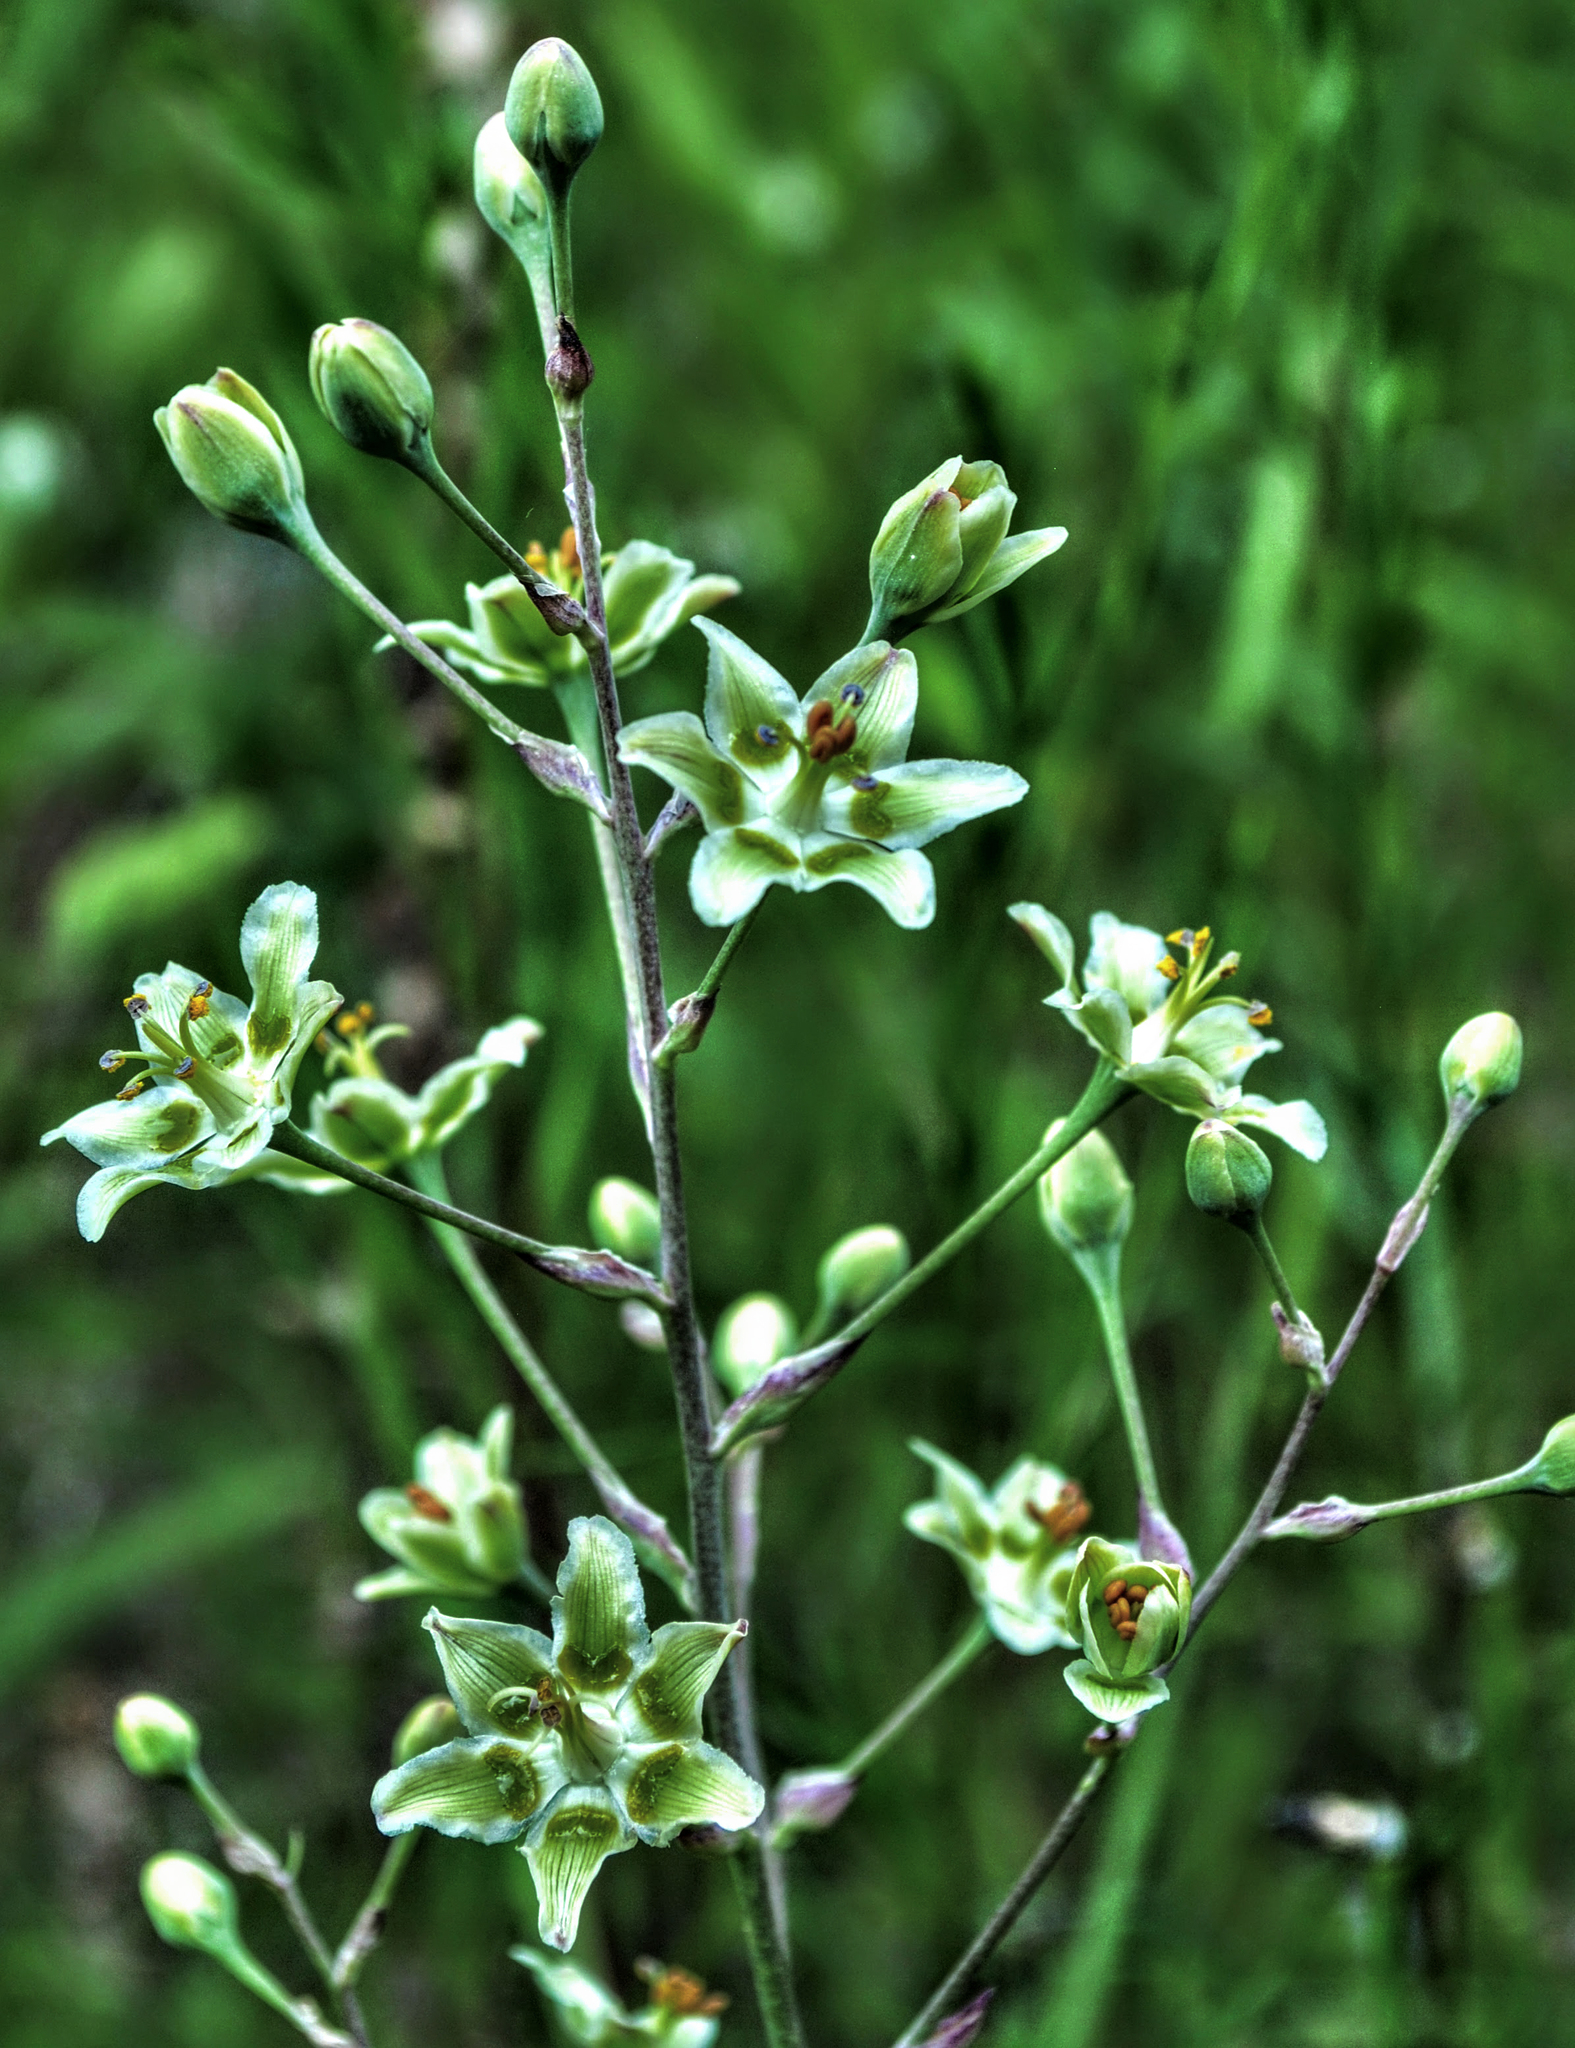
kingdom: Plantae
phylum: Tracheophyta
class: Liliopsida
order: Liliales
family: Melanthiaceae
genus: Anticlea
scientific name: Anticlea elegans
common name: Mountain death camas
